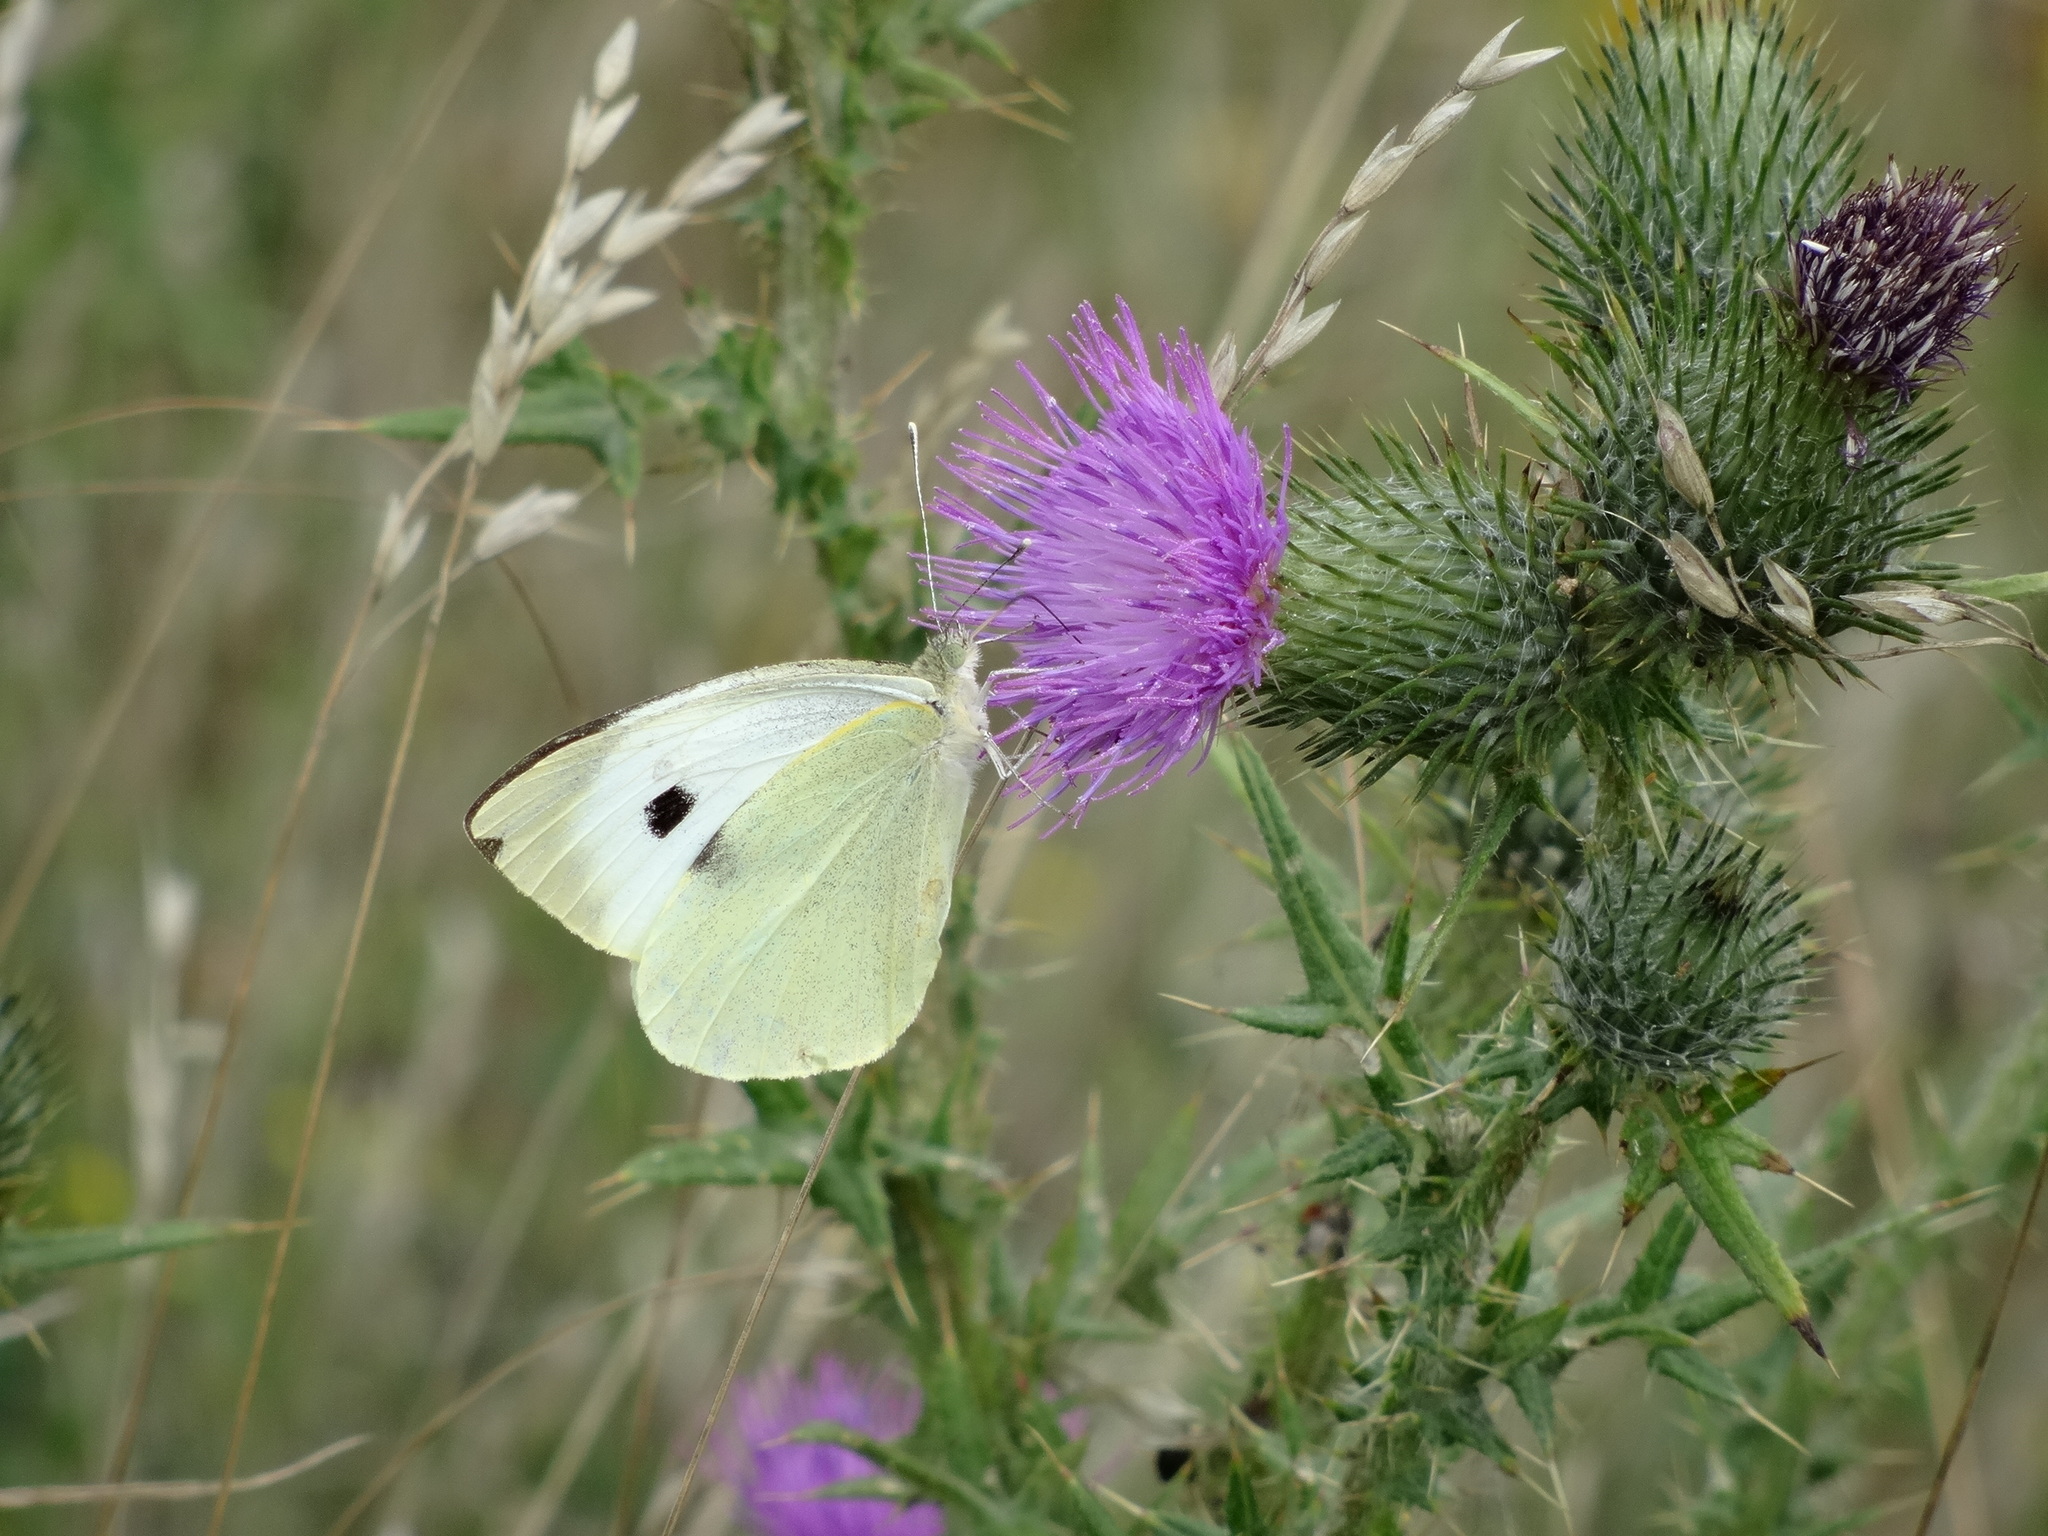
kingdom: Animalia
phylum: Arthropoda
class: Insecta
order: Lepidoptera
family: Pieridae
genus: Pieris
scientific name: Pieris brassicae
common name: Large white
